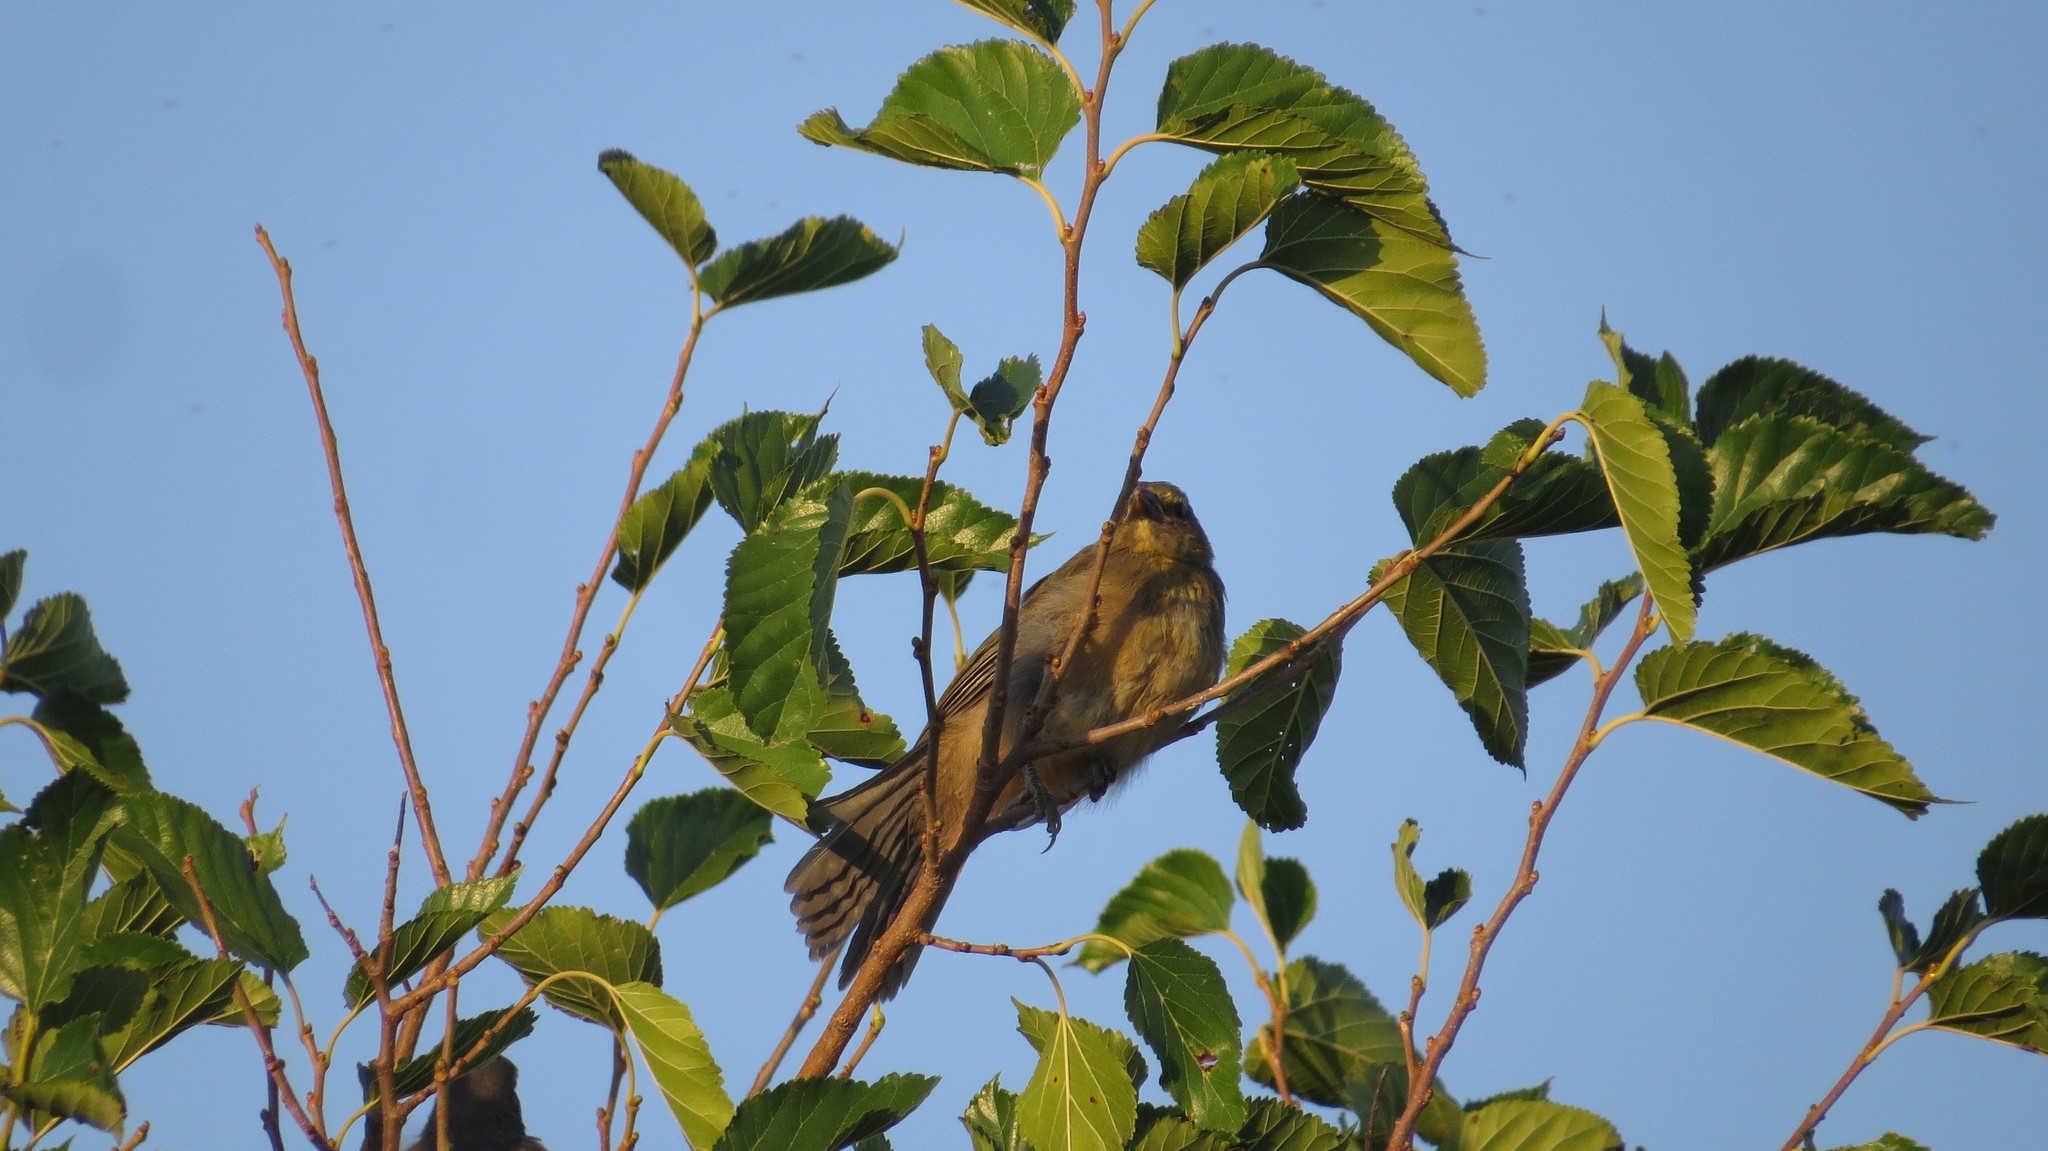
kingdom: Animalia
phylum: Chordata
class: Aves
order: Passeriformes
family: Thraupidae
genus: Saltator
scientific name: Saltator coerulescens
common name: Grayish saltator
